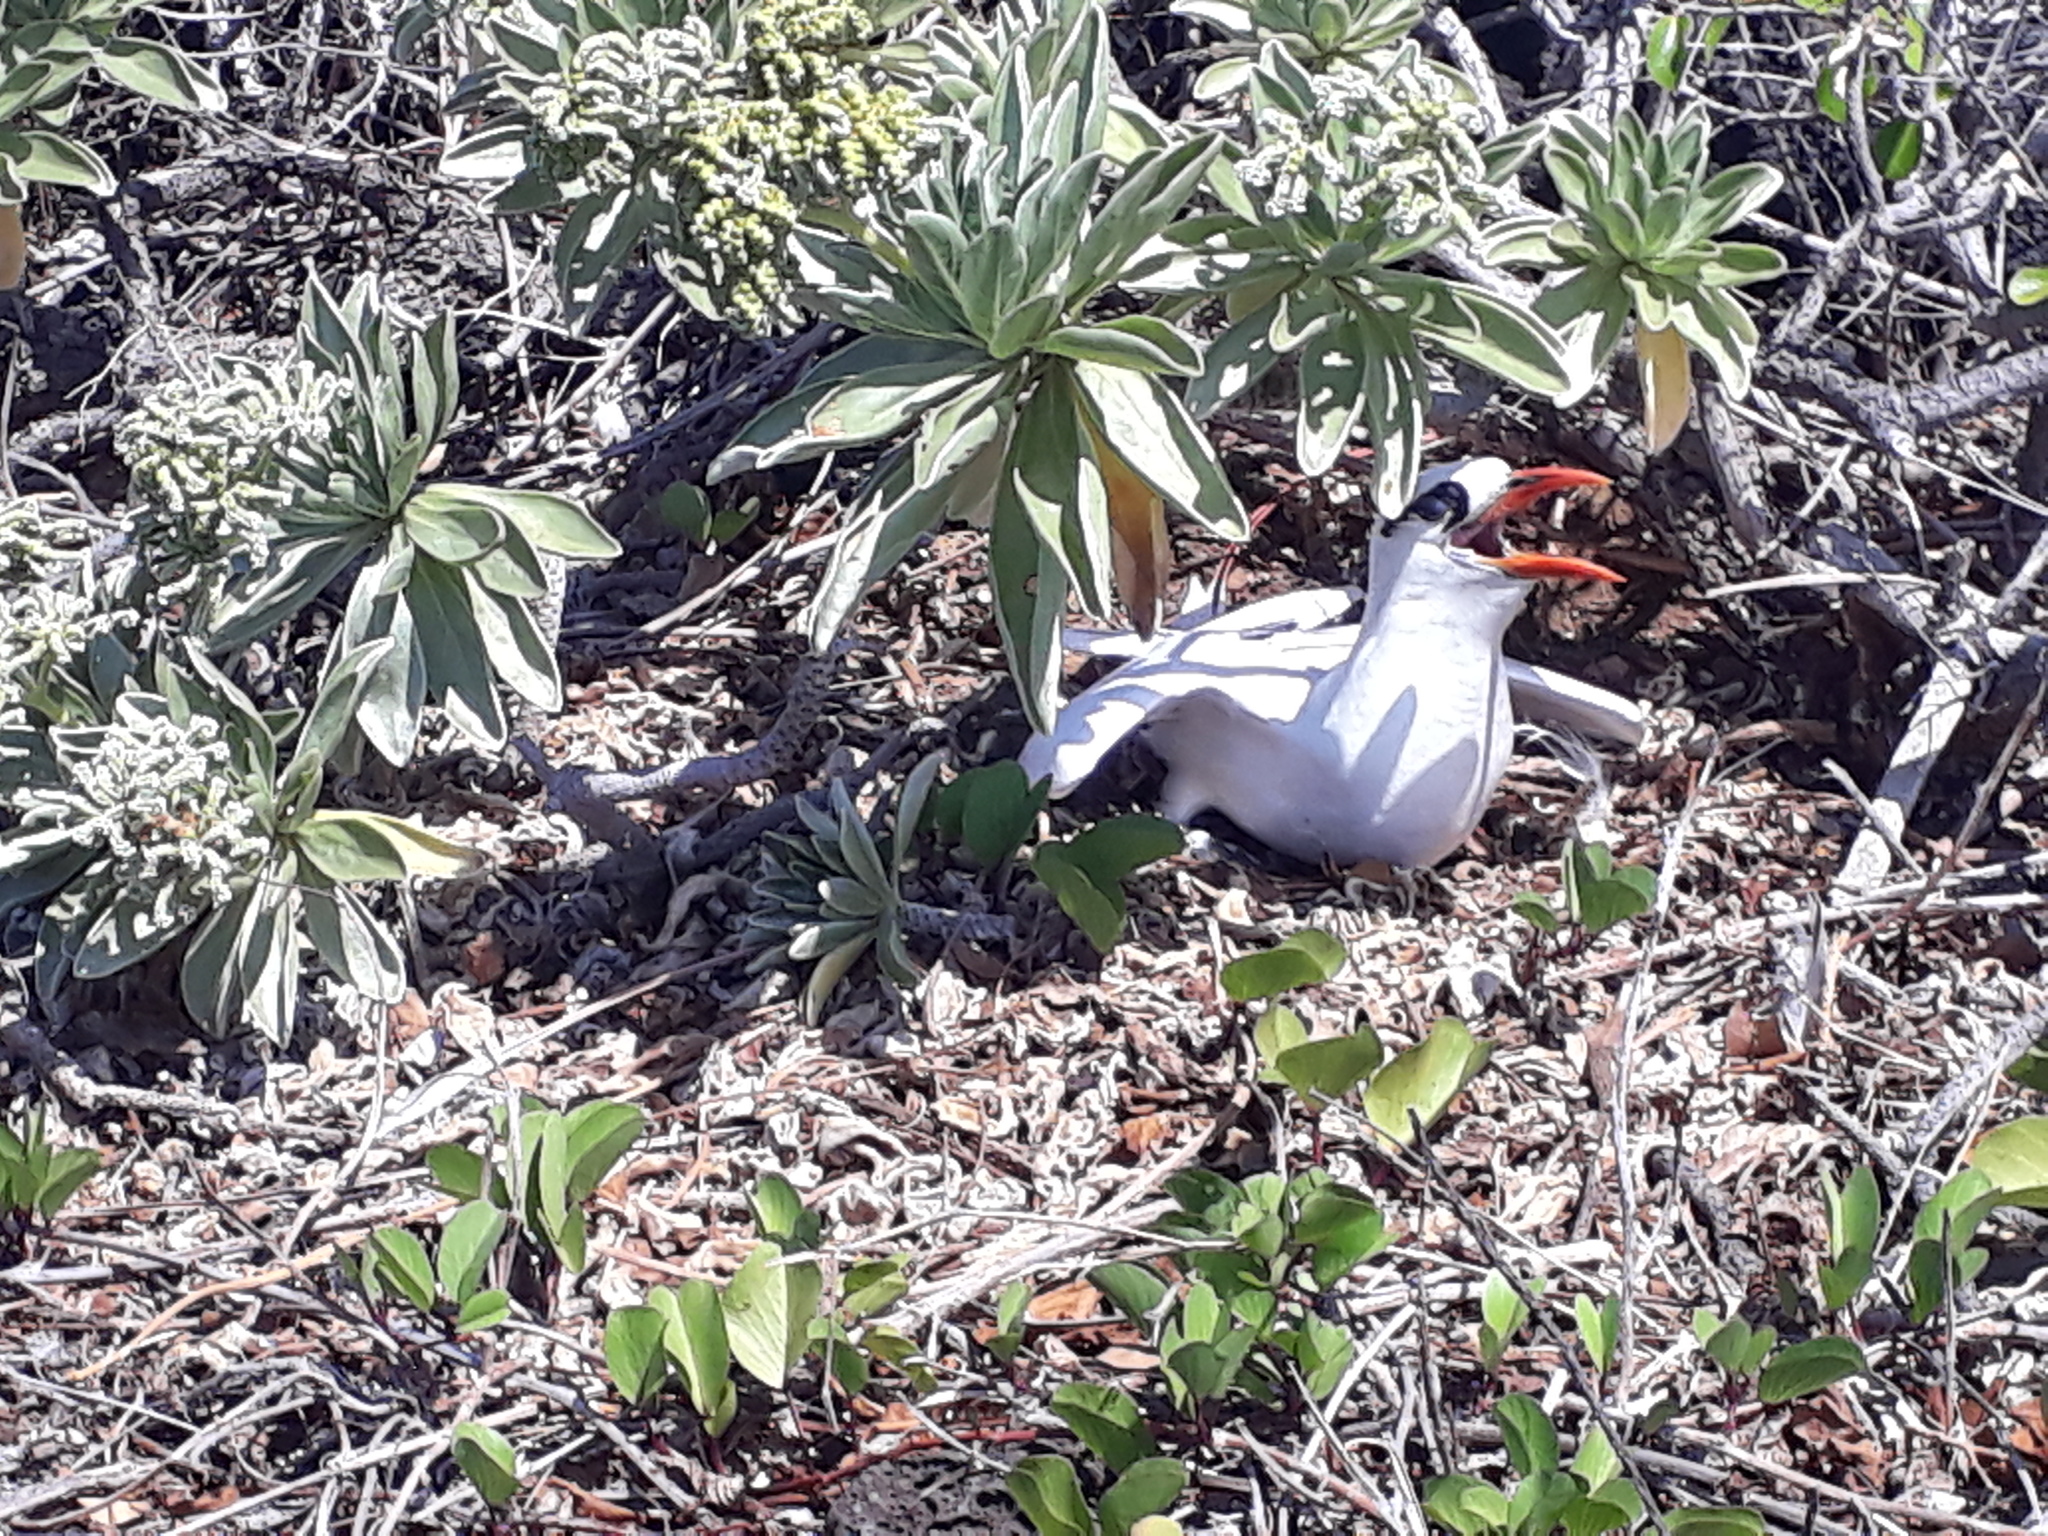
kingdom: Animalia
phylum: Chordata
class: Aves
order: Phaethontiformes
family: Phaethontidae
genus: Phaethon
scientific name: Phaethon rubricauda
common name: Red-tailed tropicbird
